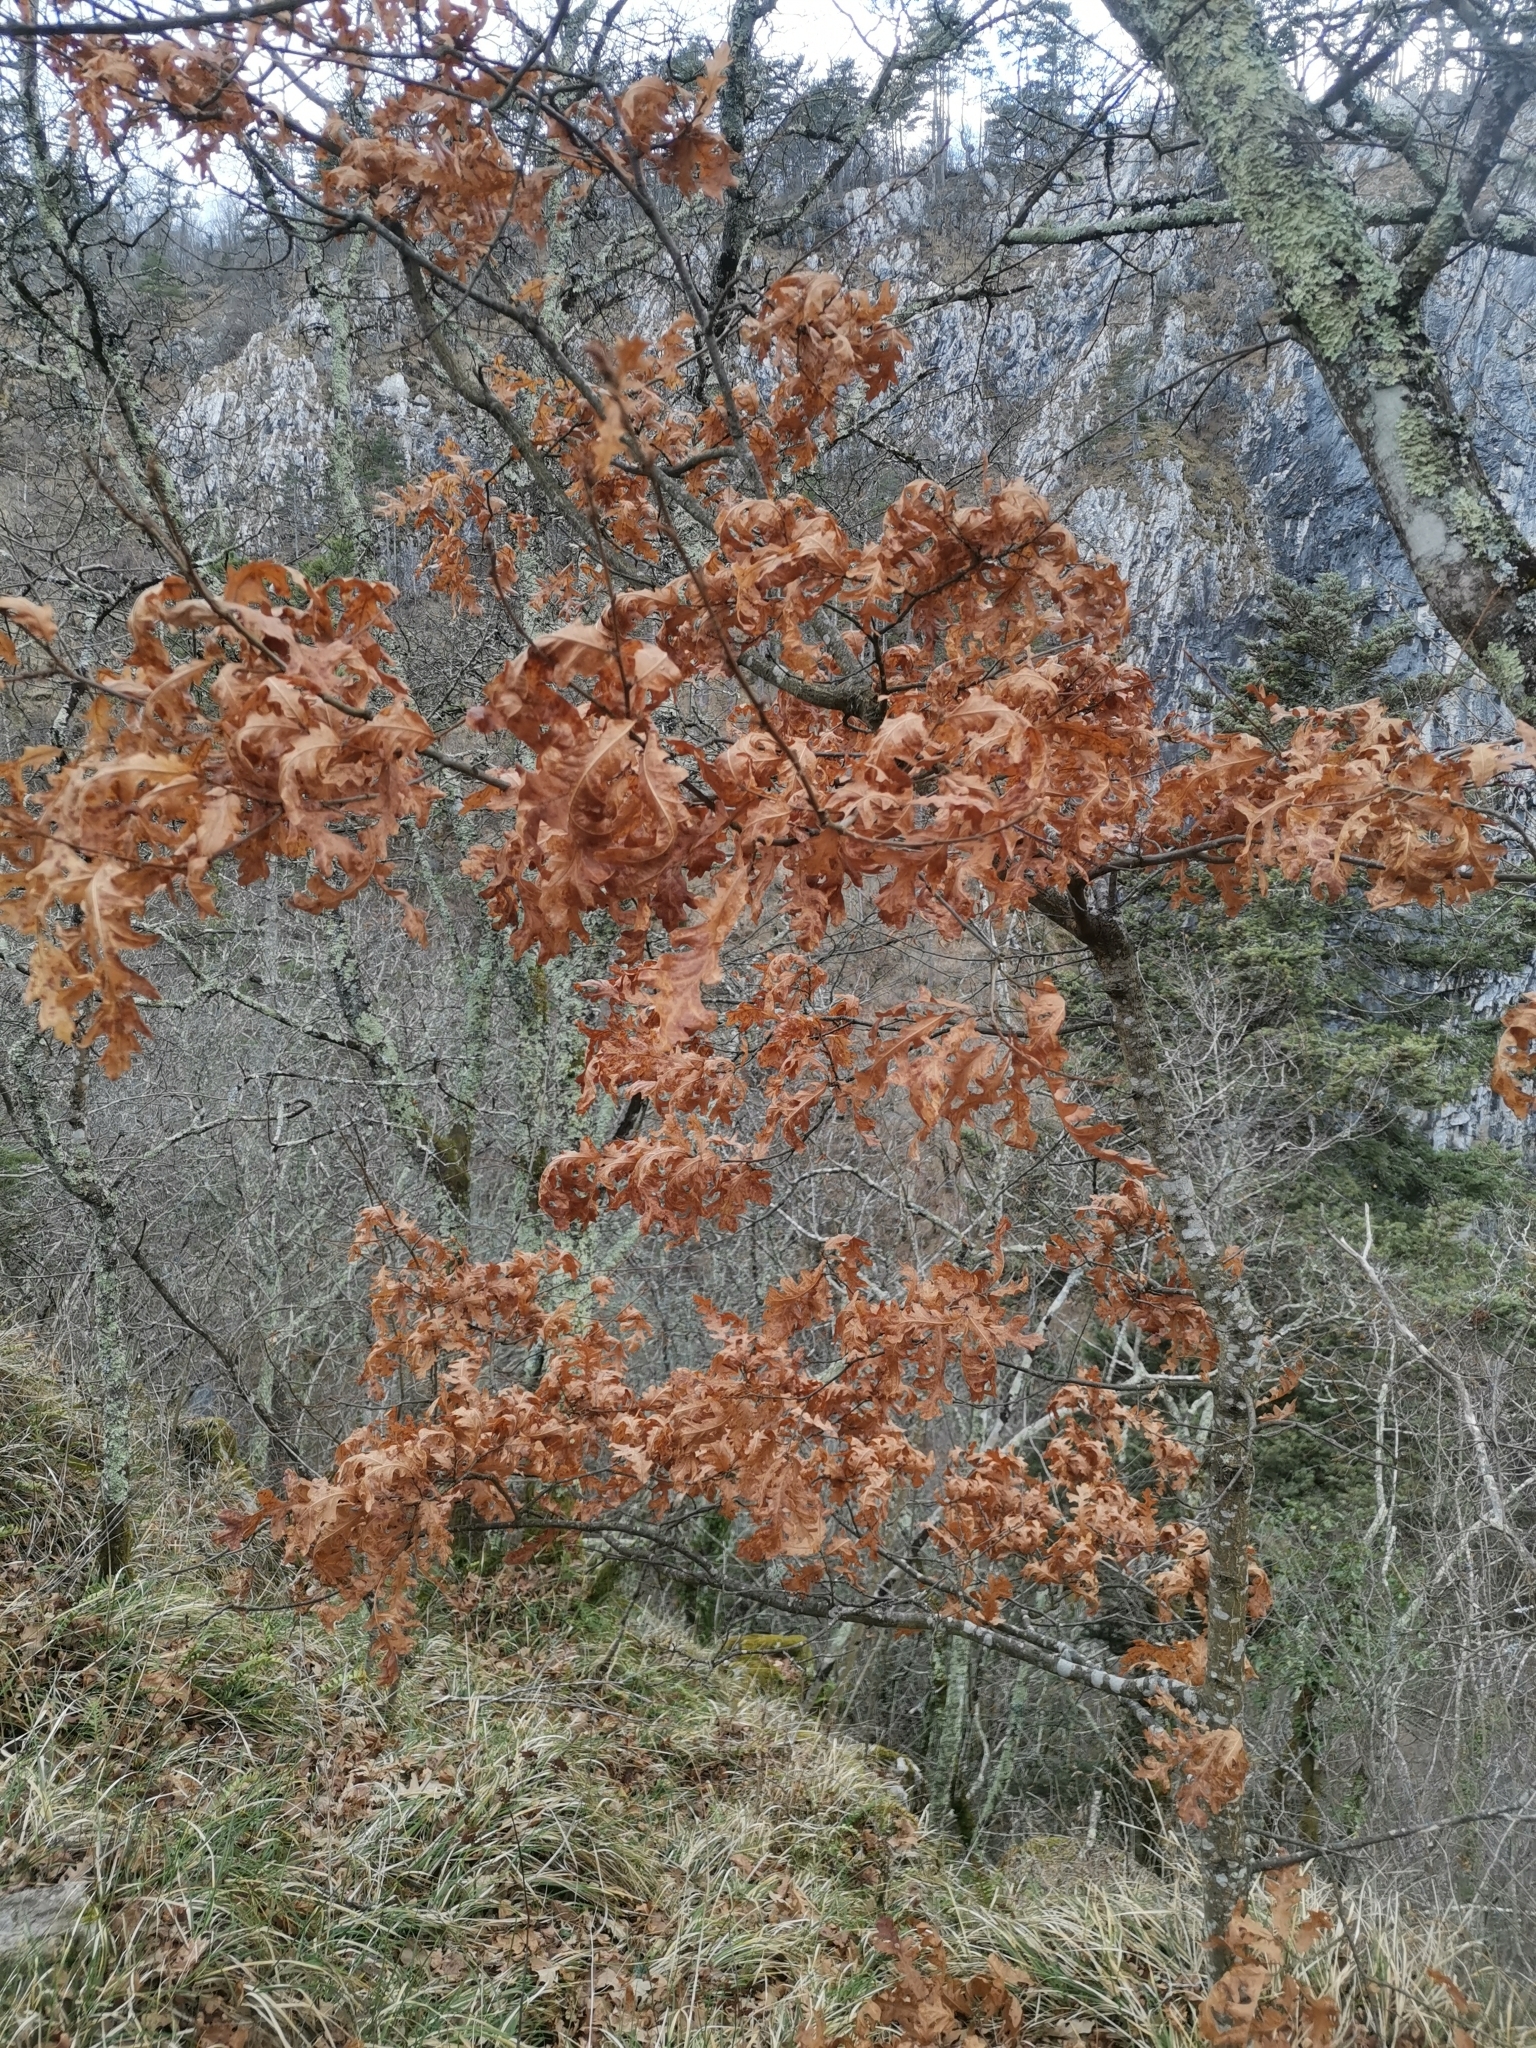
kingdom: Plantae
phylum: Tracheophyta
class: Magnoliopsida
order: Fagales
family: Fagaceae
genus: Quercus
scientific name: Quercus cerris
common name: Turkey oak
